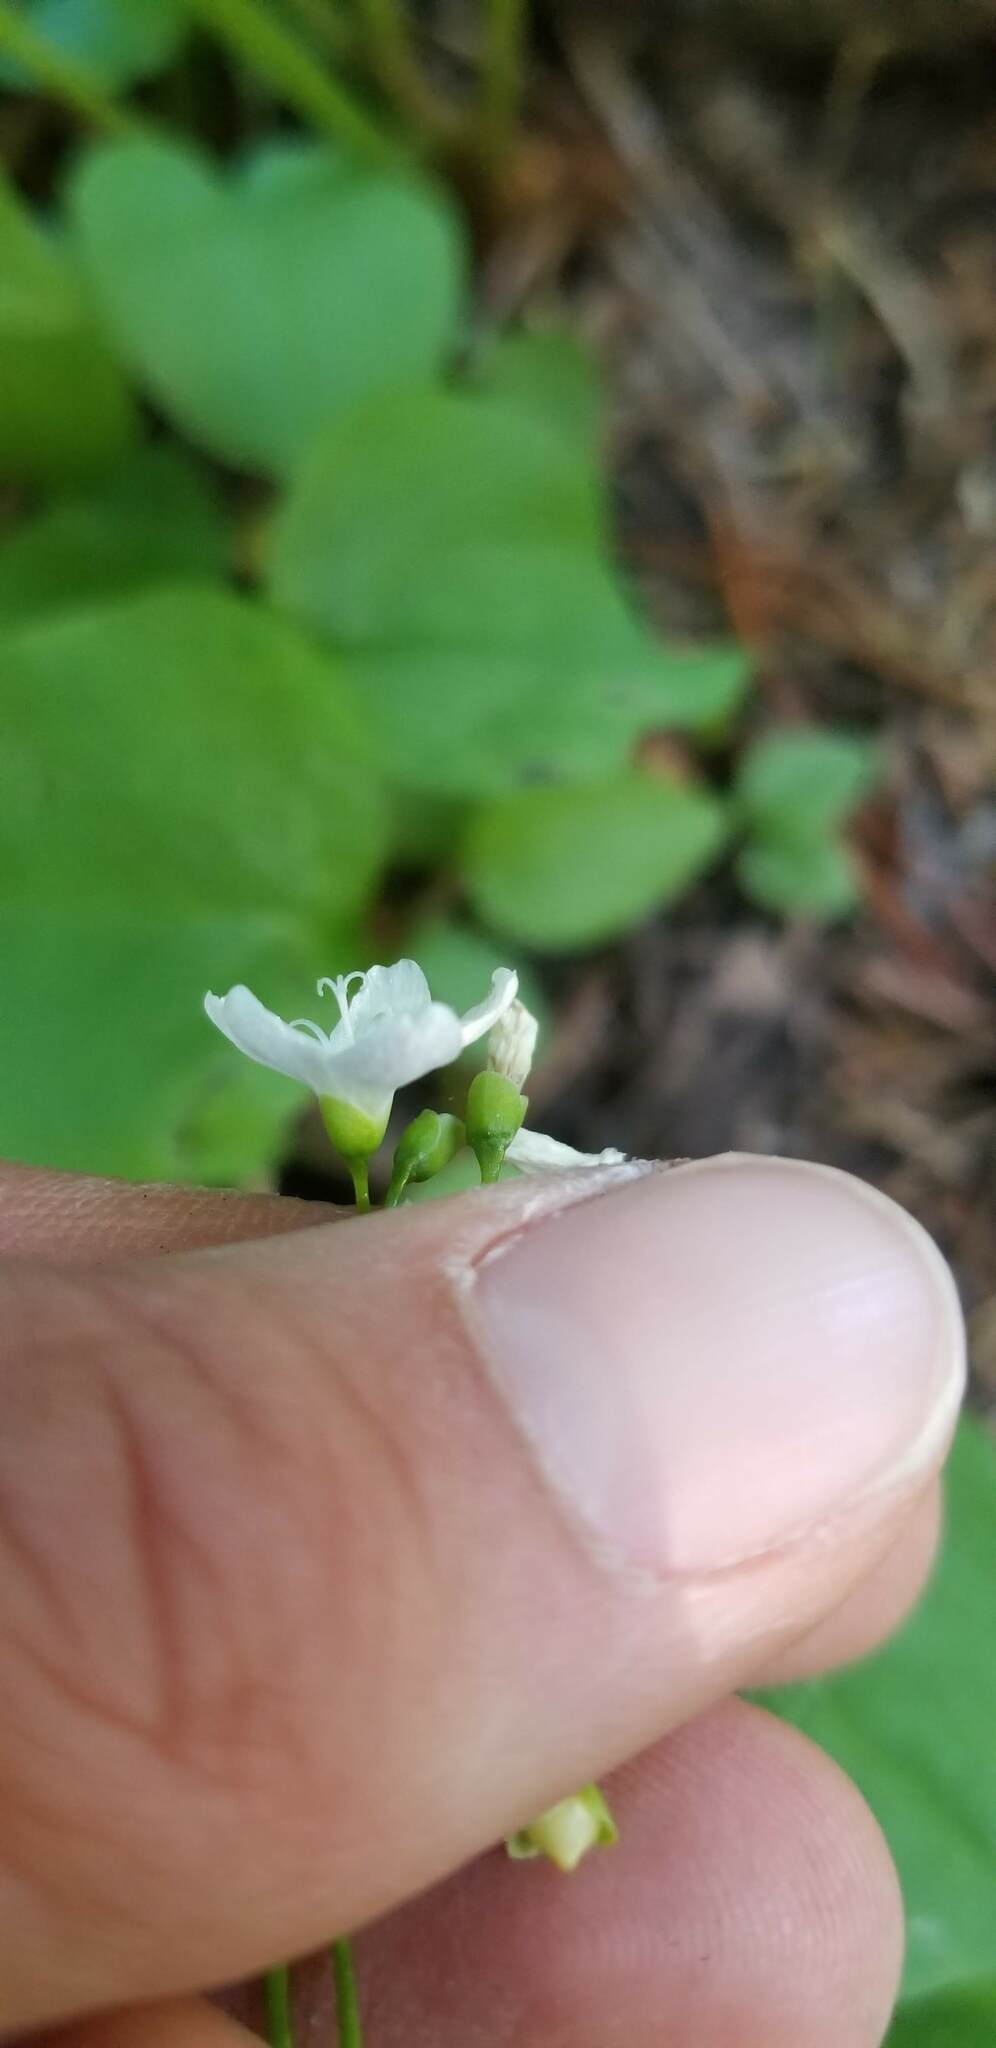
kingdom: Plantae
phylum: Tracheophyta
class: Magnoliopsida
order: Caryophyllales
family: Montiaceae
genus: Claytonia
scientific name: Claytonia cordifolia
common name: Broad-leaved spring beauty
